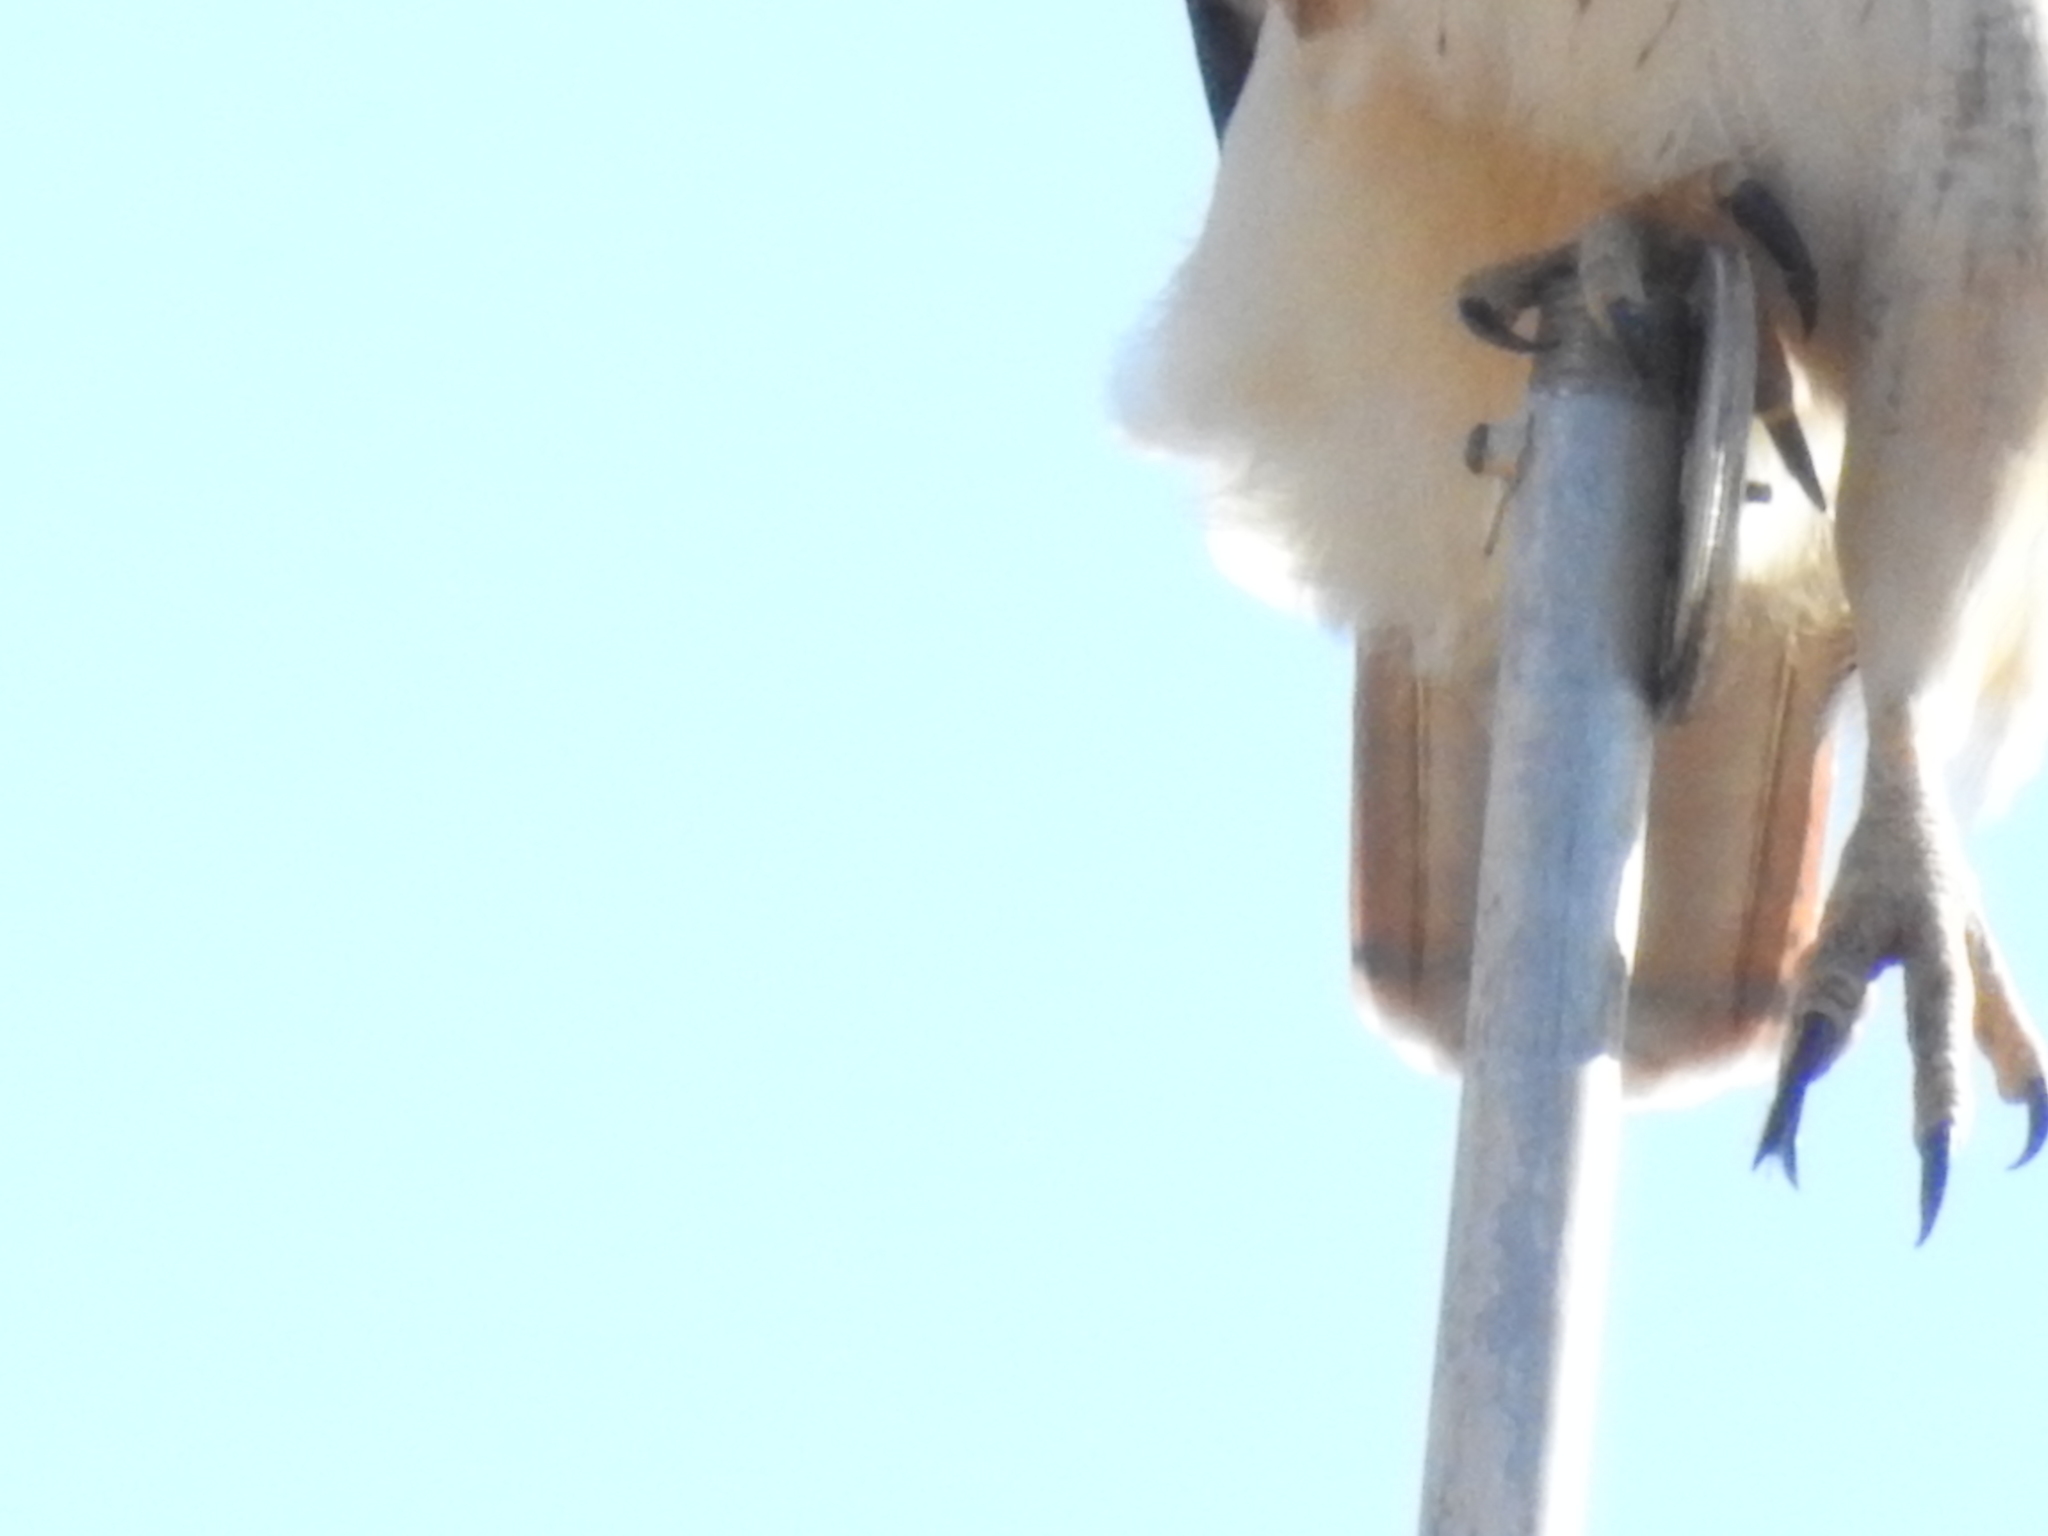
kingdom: Animalia
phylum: Chordata
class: Aves
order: Accipitriformes
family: Accipitridae
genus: Buteo
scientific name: Buteo jamaicensis
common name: Red-tailed hawk
